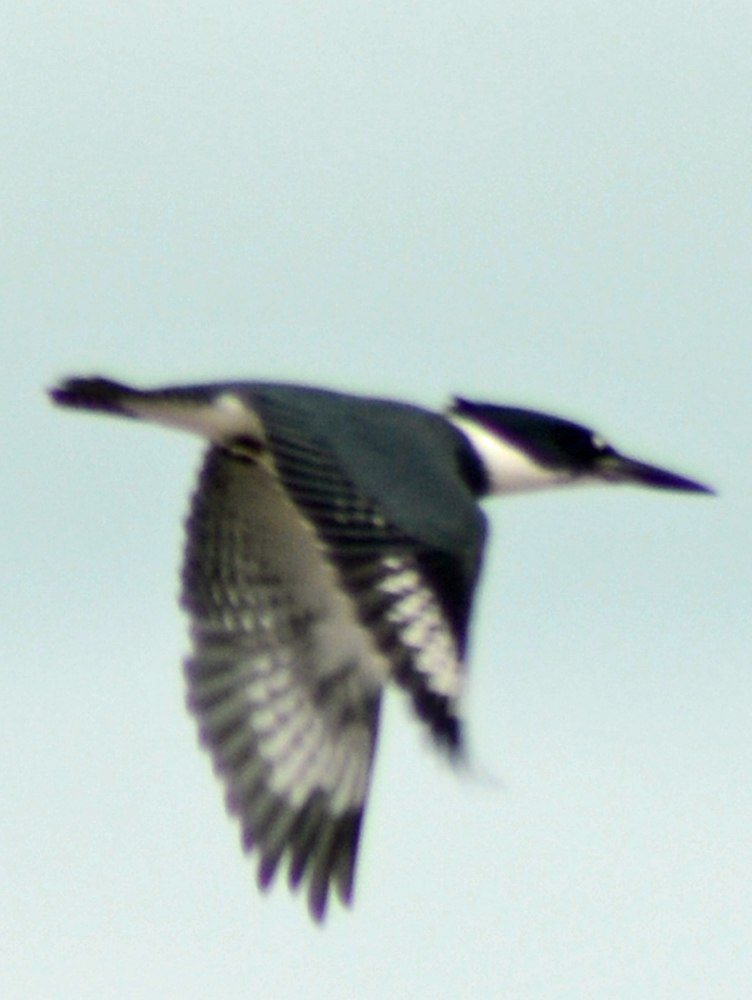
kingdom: Animalia
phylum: Chordata
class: Aves
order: Coraciiformes
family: Alcedinidae
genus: Megaceryle
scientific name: Megaceryle alcyon
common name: Belted kingfisher
